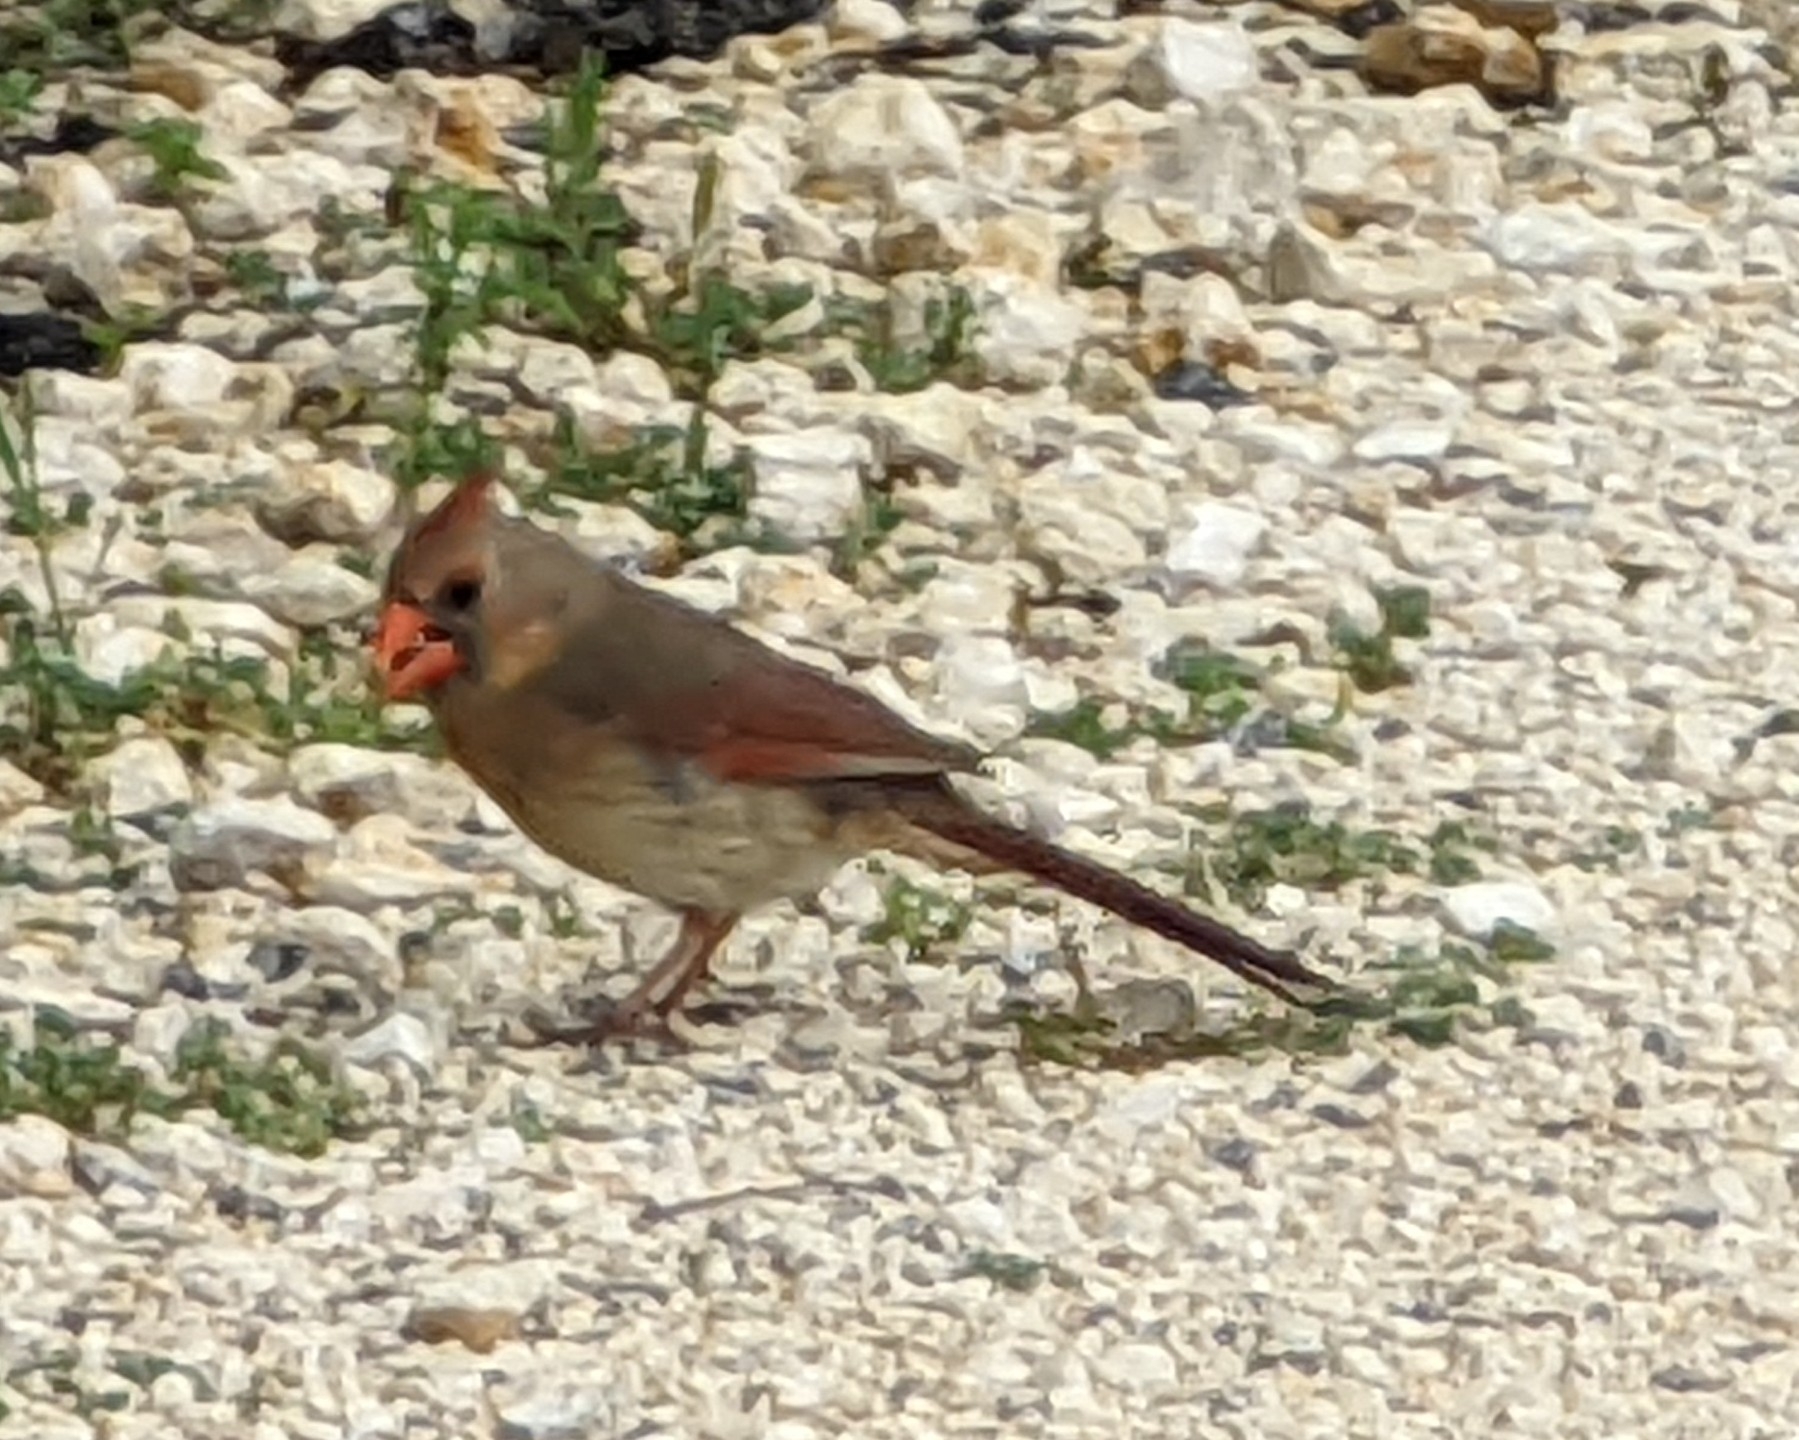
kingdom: Animalia
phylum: Chordata
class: Aves
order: Passeriformes
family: Cardinalidae
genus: Cardinalis
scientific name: Cardinalis cardinalis
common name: Northern cardinal
